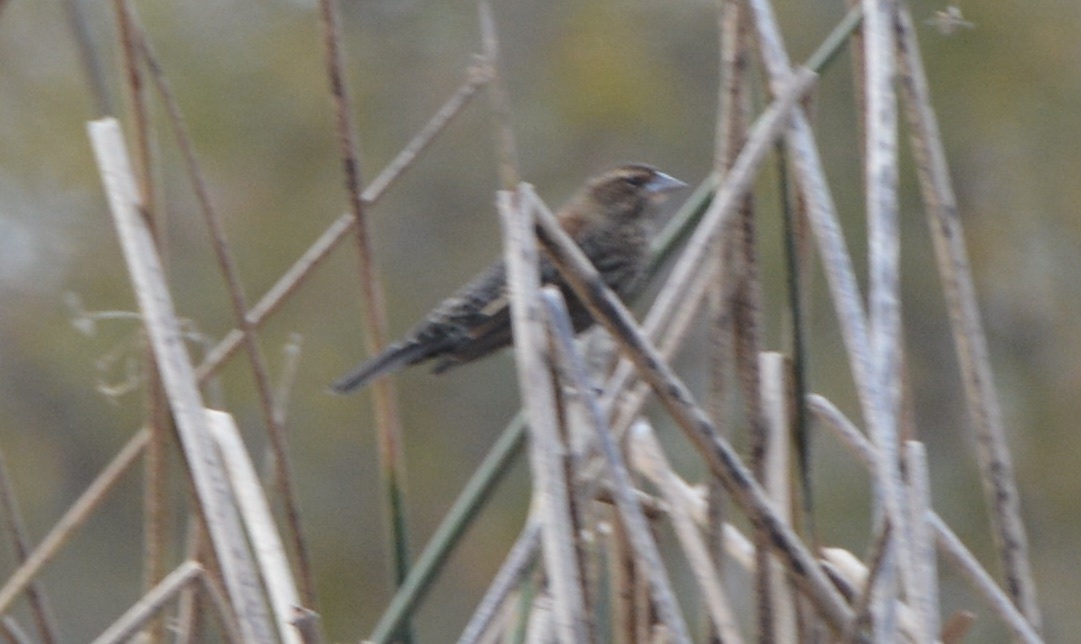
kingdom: Animalia
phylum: Chordata
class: Aves
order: Passeriformes
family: Icteridae
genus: Agelaius
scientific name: Agelaius phoeniceus
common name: Red-winged blackbird
